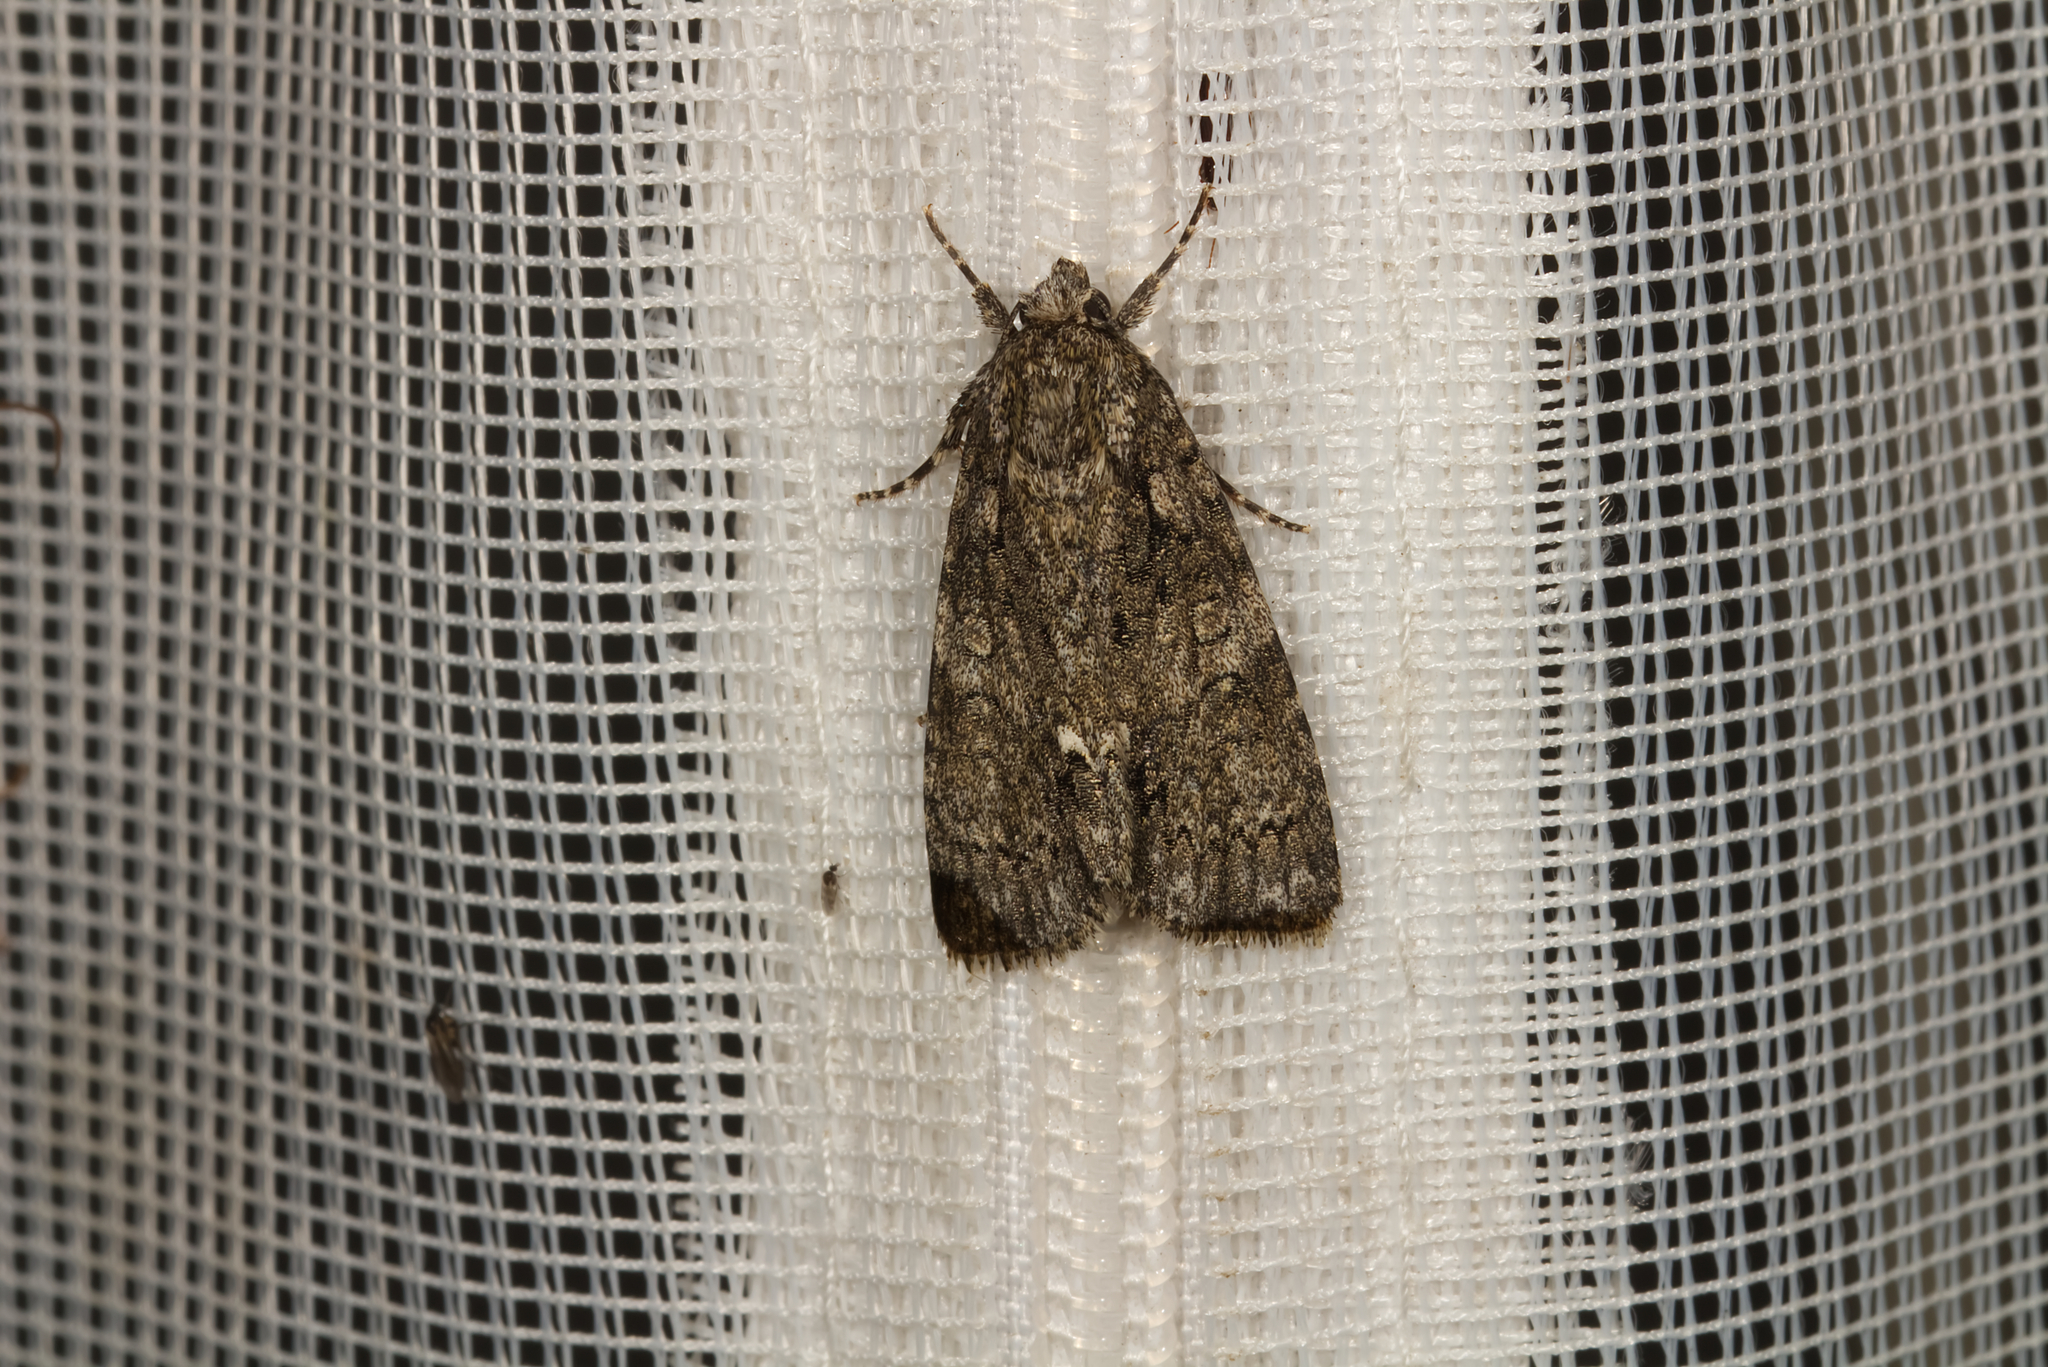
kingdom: Animalia
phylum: Arthropoda
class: Insecta
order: Lepidoptera
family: Noctuidae
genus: Acronicta
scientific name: Acronicta rumicis
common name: Knot grass
